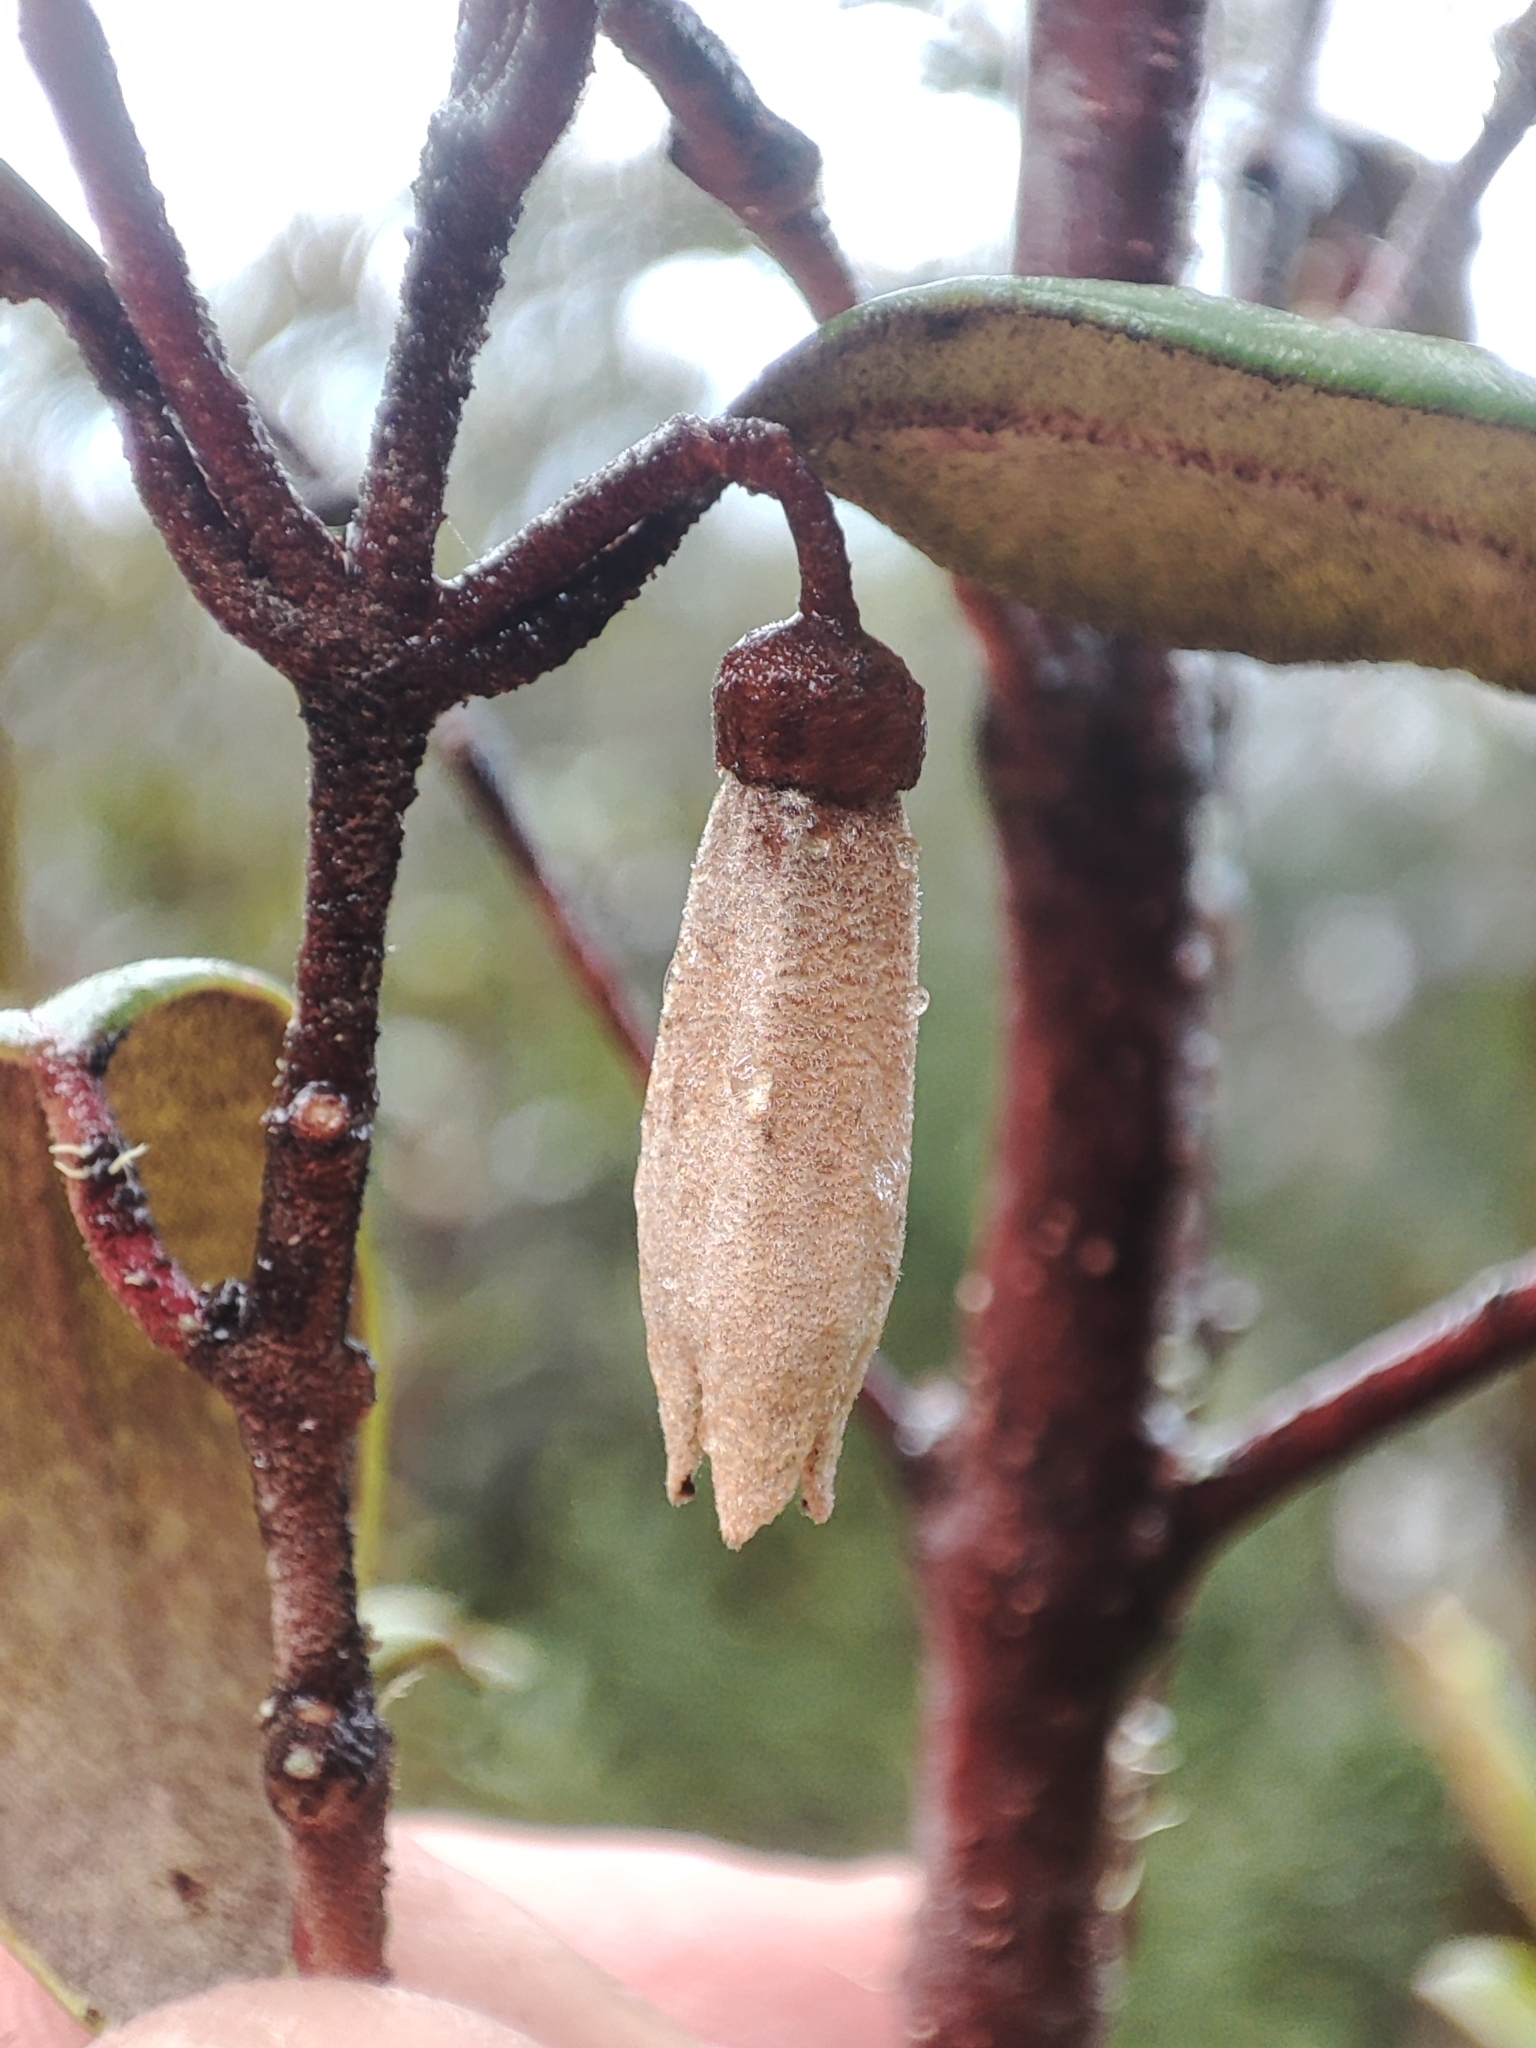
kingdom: Plantae
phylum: Tracheophyta
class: Magnoliopsida
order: Sapindales
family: Rutaceae
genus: Correa
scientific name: Correa lawrenceana
